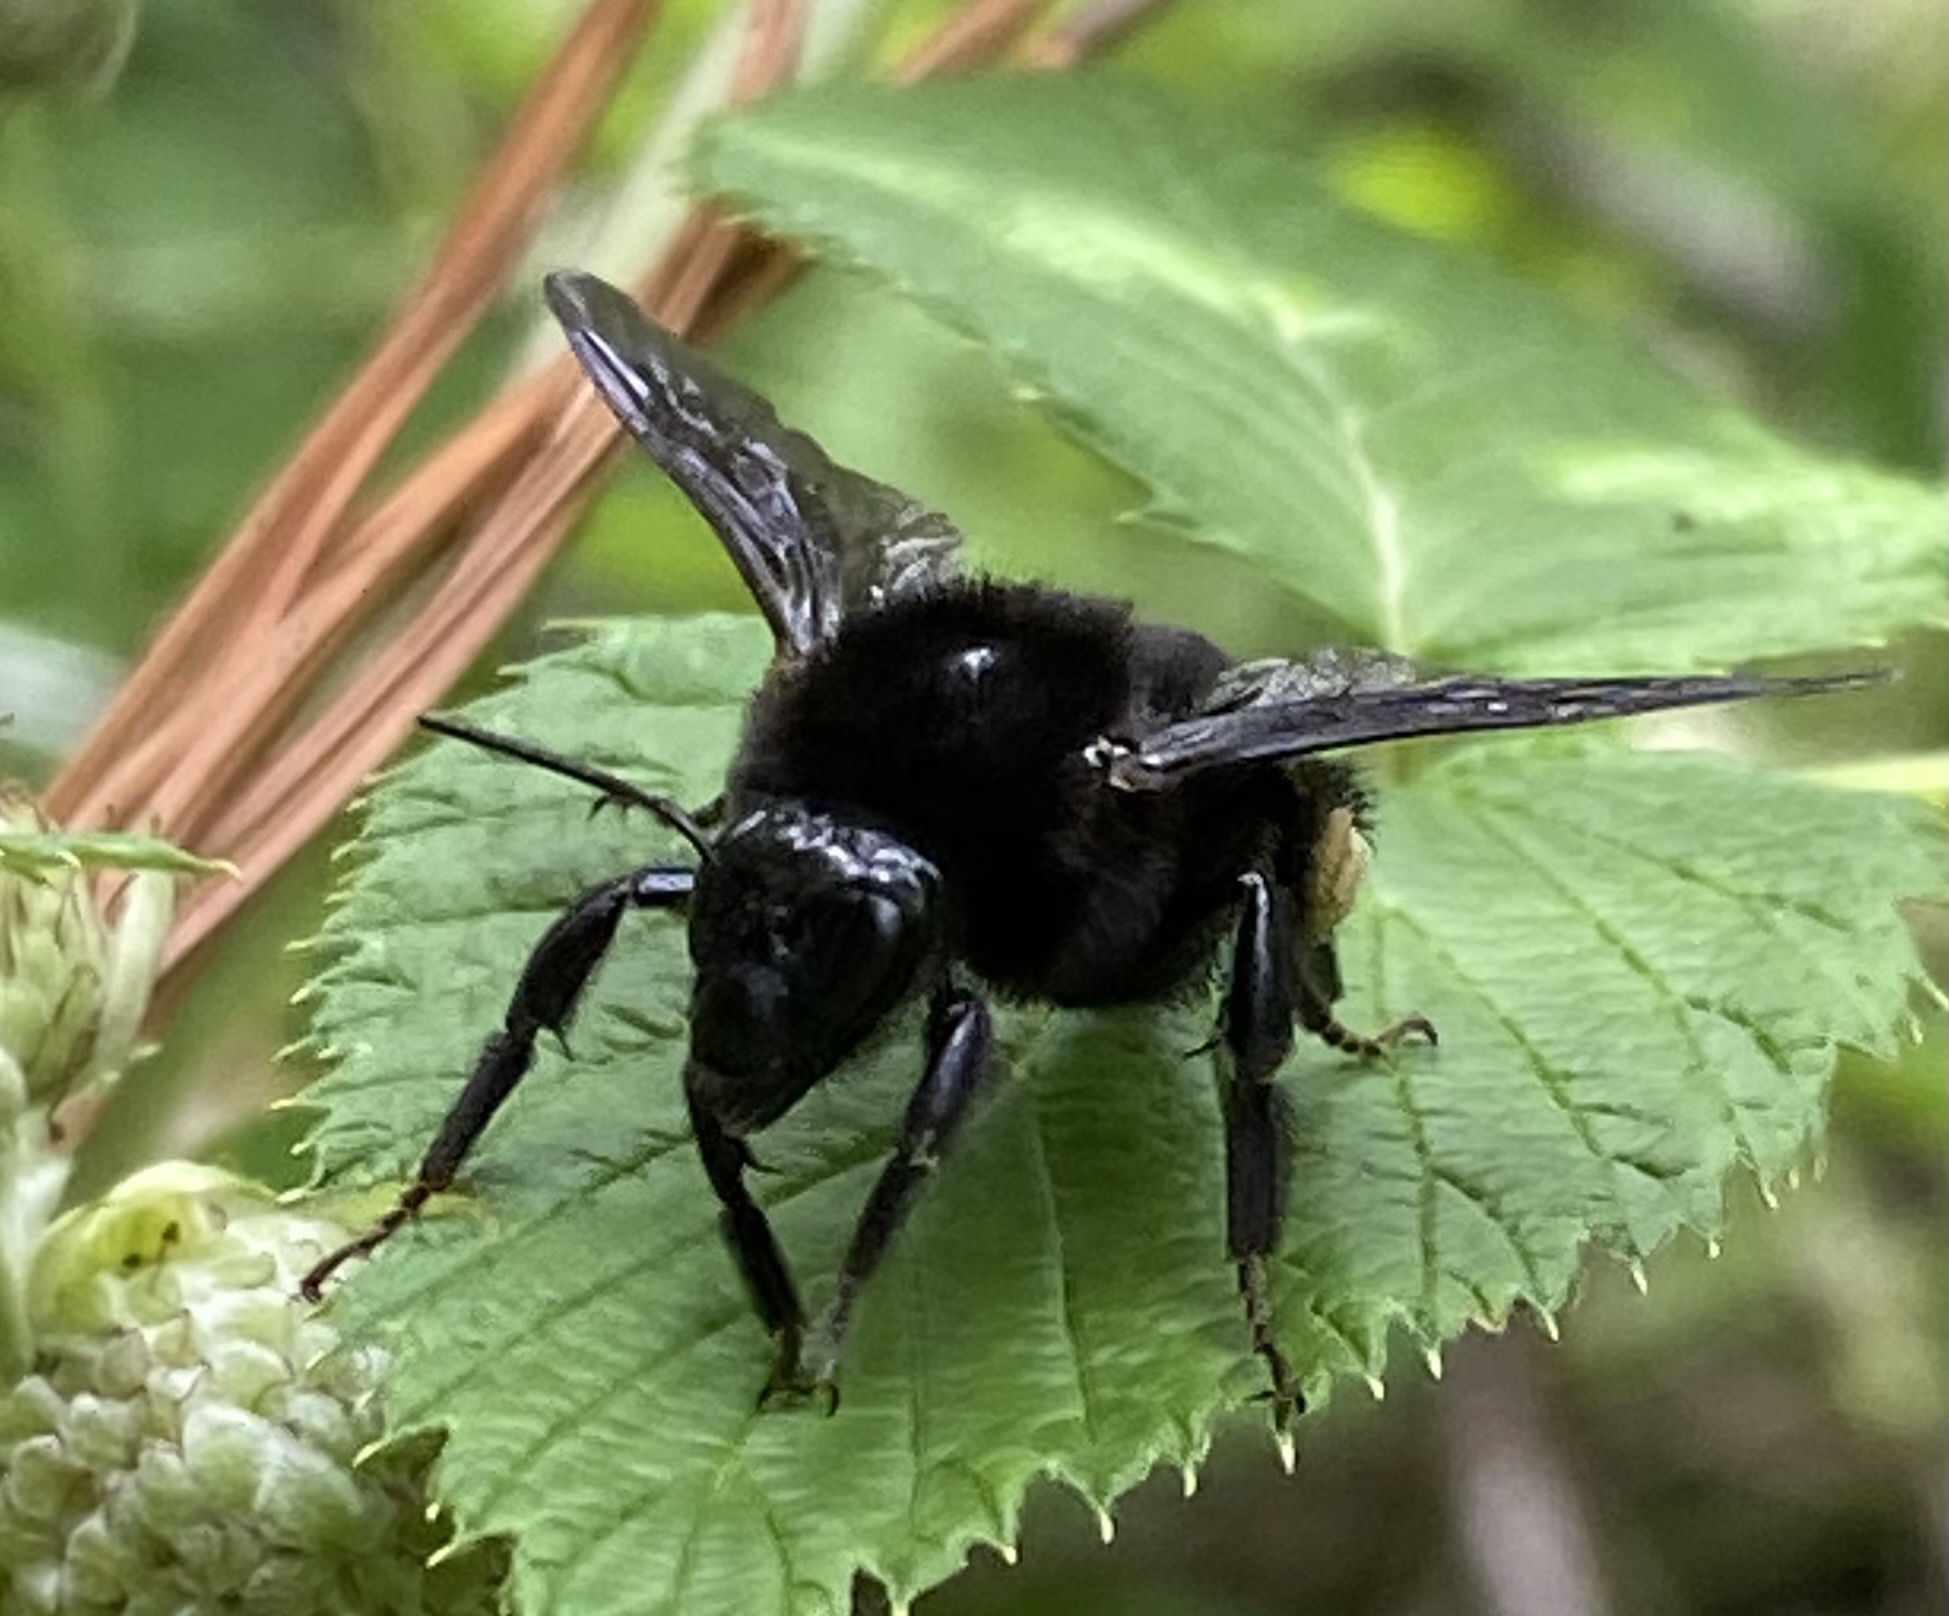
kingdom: Animalia
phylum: Arthropoda
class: Insecta
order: Hymenoptera
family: Apidae
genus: Bombus
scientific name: Bombus mexicanus
